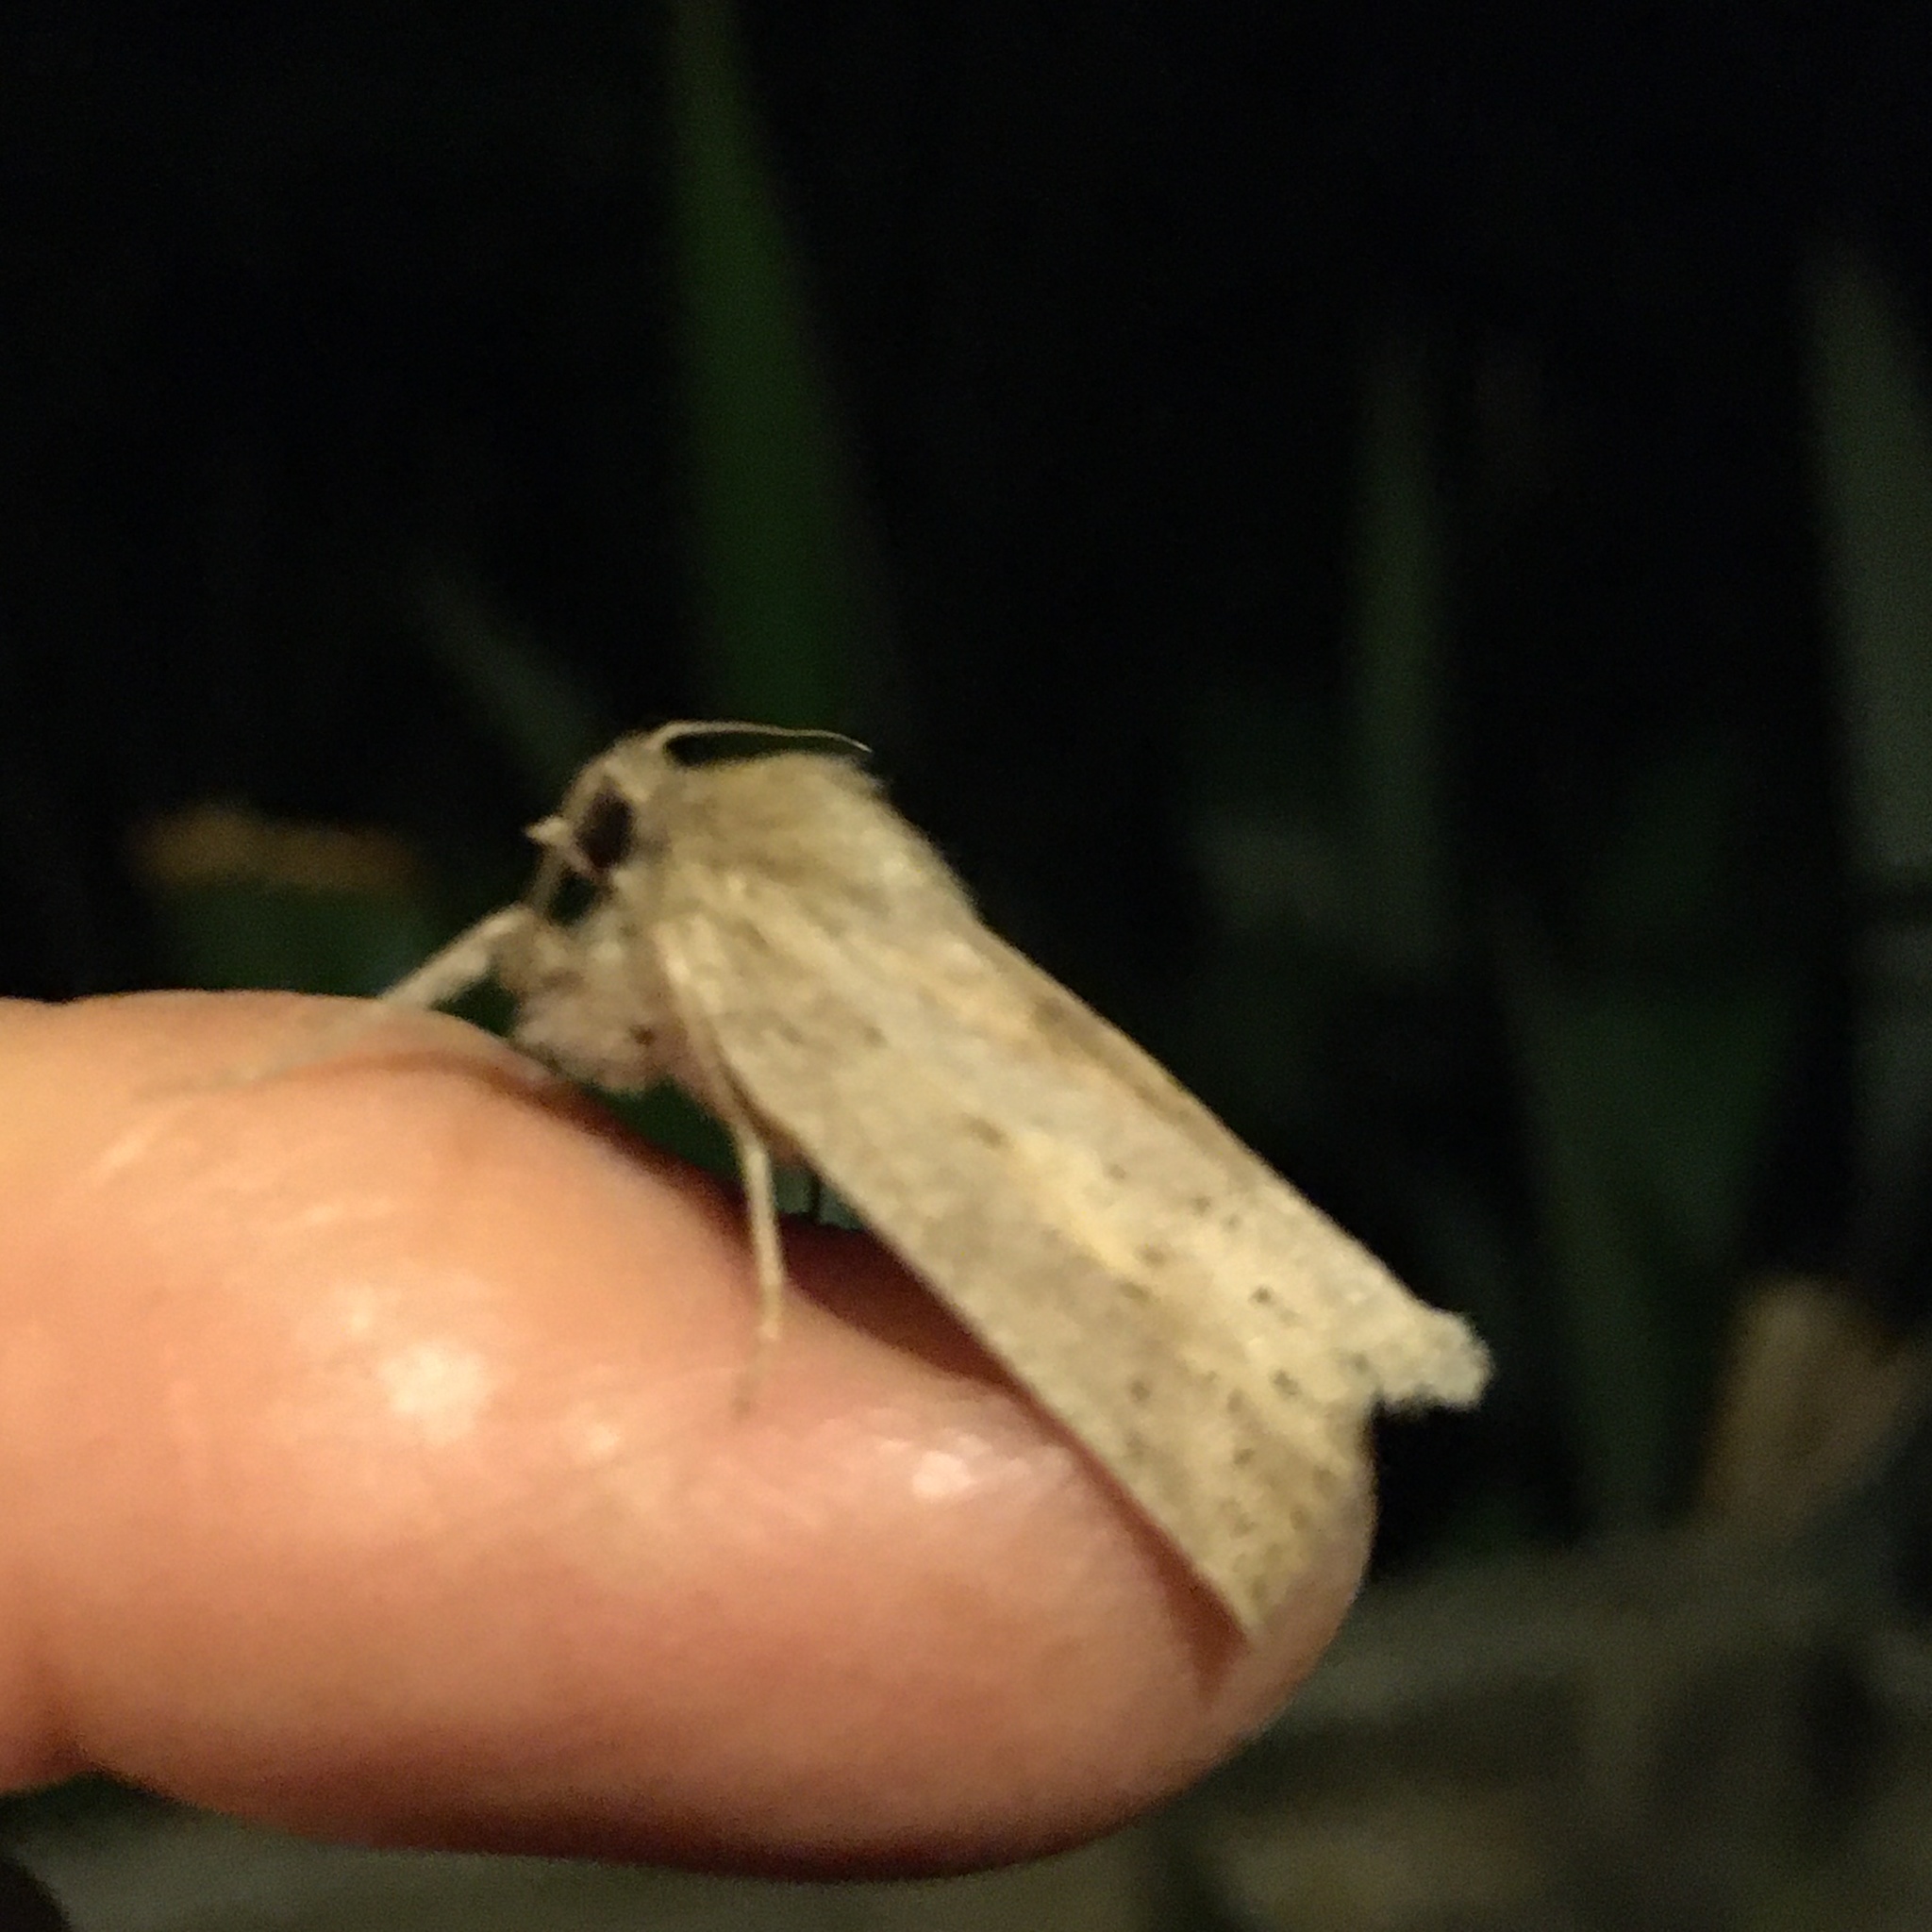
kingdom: Animalia
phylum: Arthropoda
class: Insecta
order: Lepidoptera
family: Geometridae
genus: Declana
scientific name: Declana leptomera
